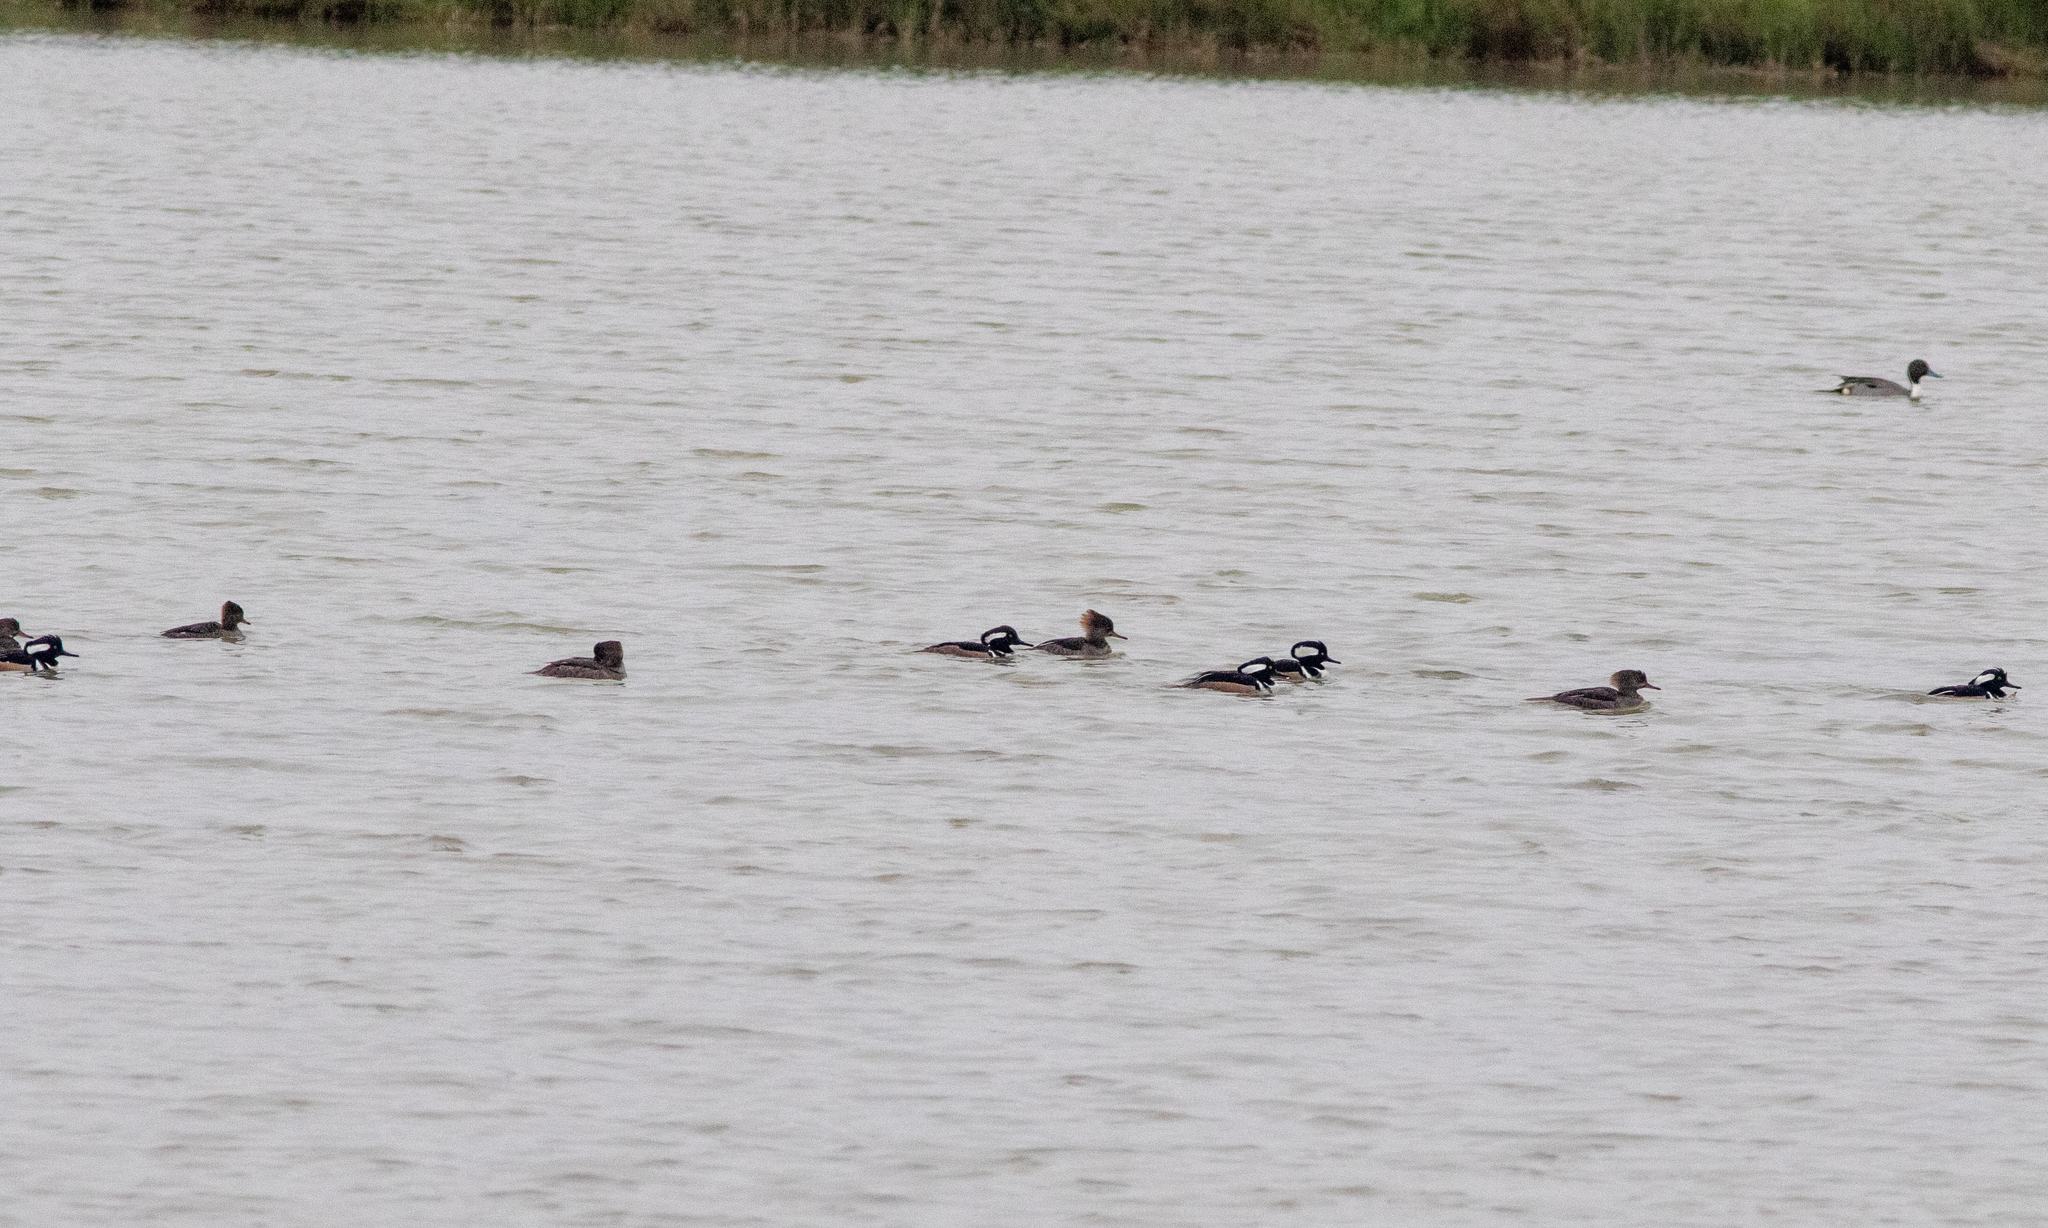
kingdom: Animalia
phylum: Chordata
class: Aves
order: Anseriformes
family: Anatidae
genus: Lophodytes
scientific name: Lophodytes cucullatus
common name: Hooded merganser
